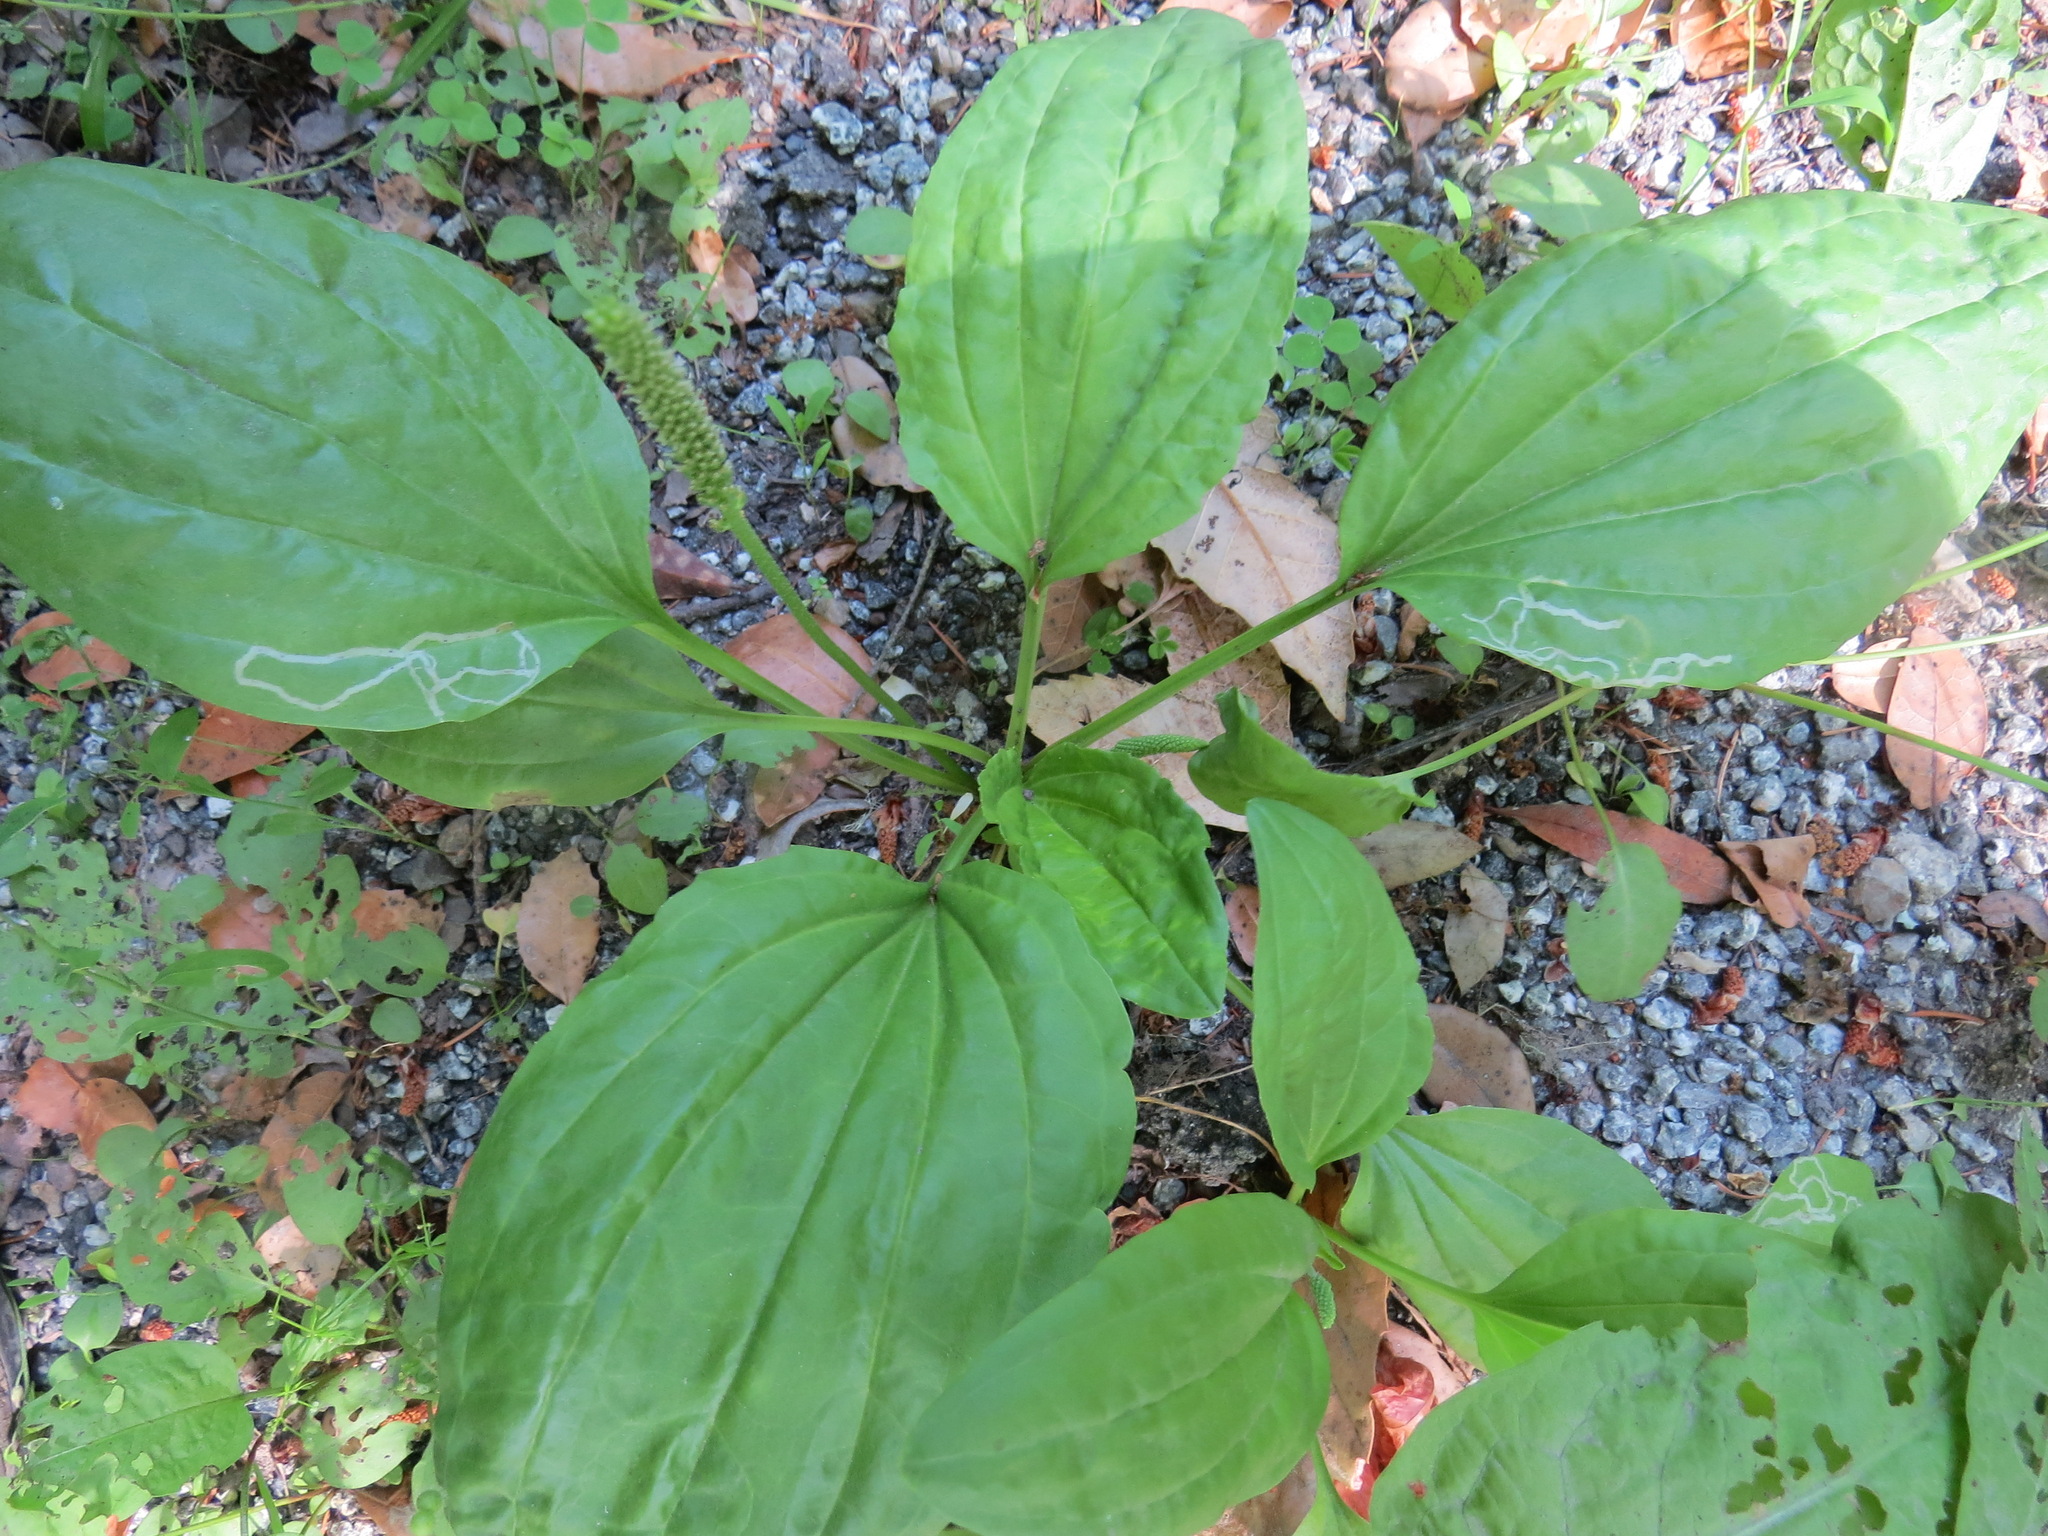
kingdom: Animalia
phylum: Arthropoda
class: Insecta
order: Diptera
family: Agromyzidae
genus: Phytomyza
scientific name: Phytomyza plantaginis
